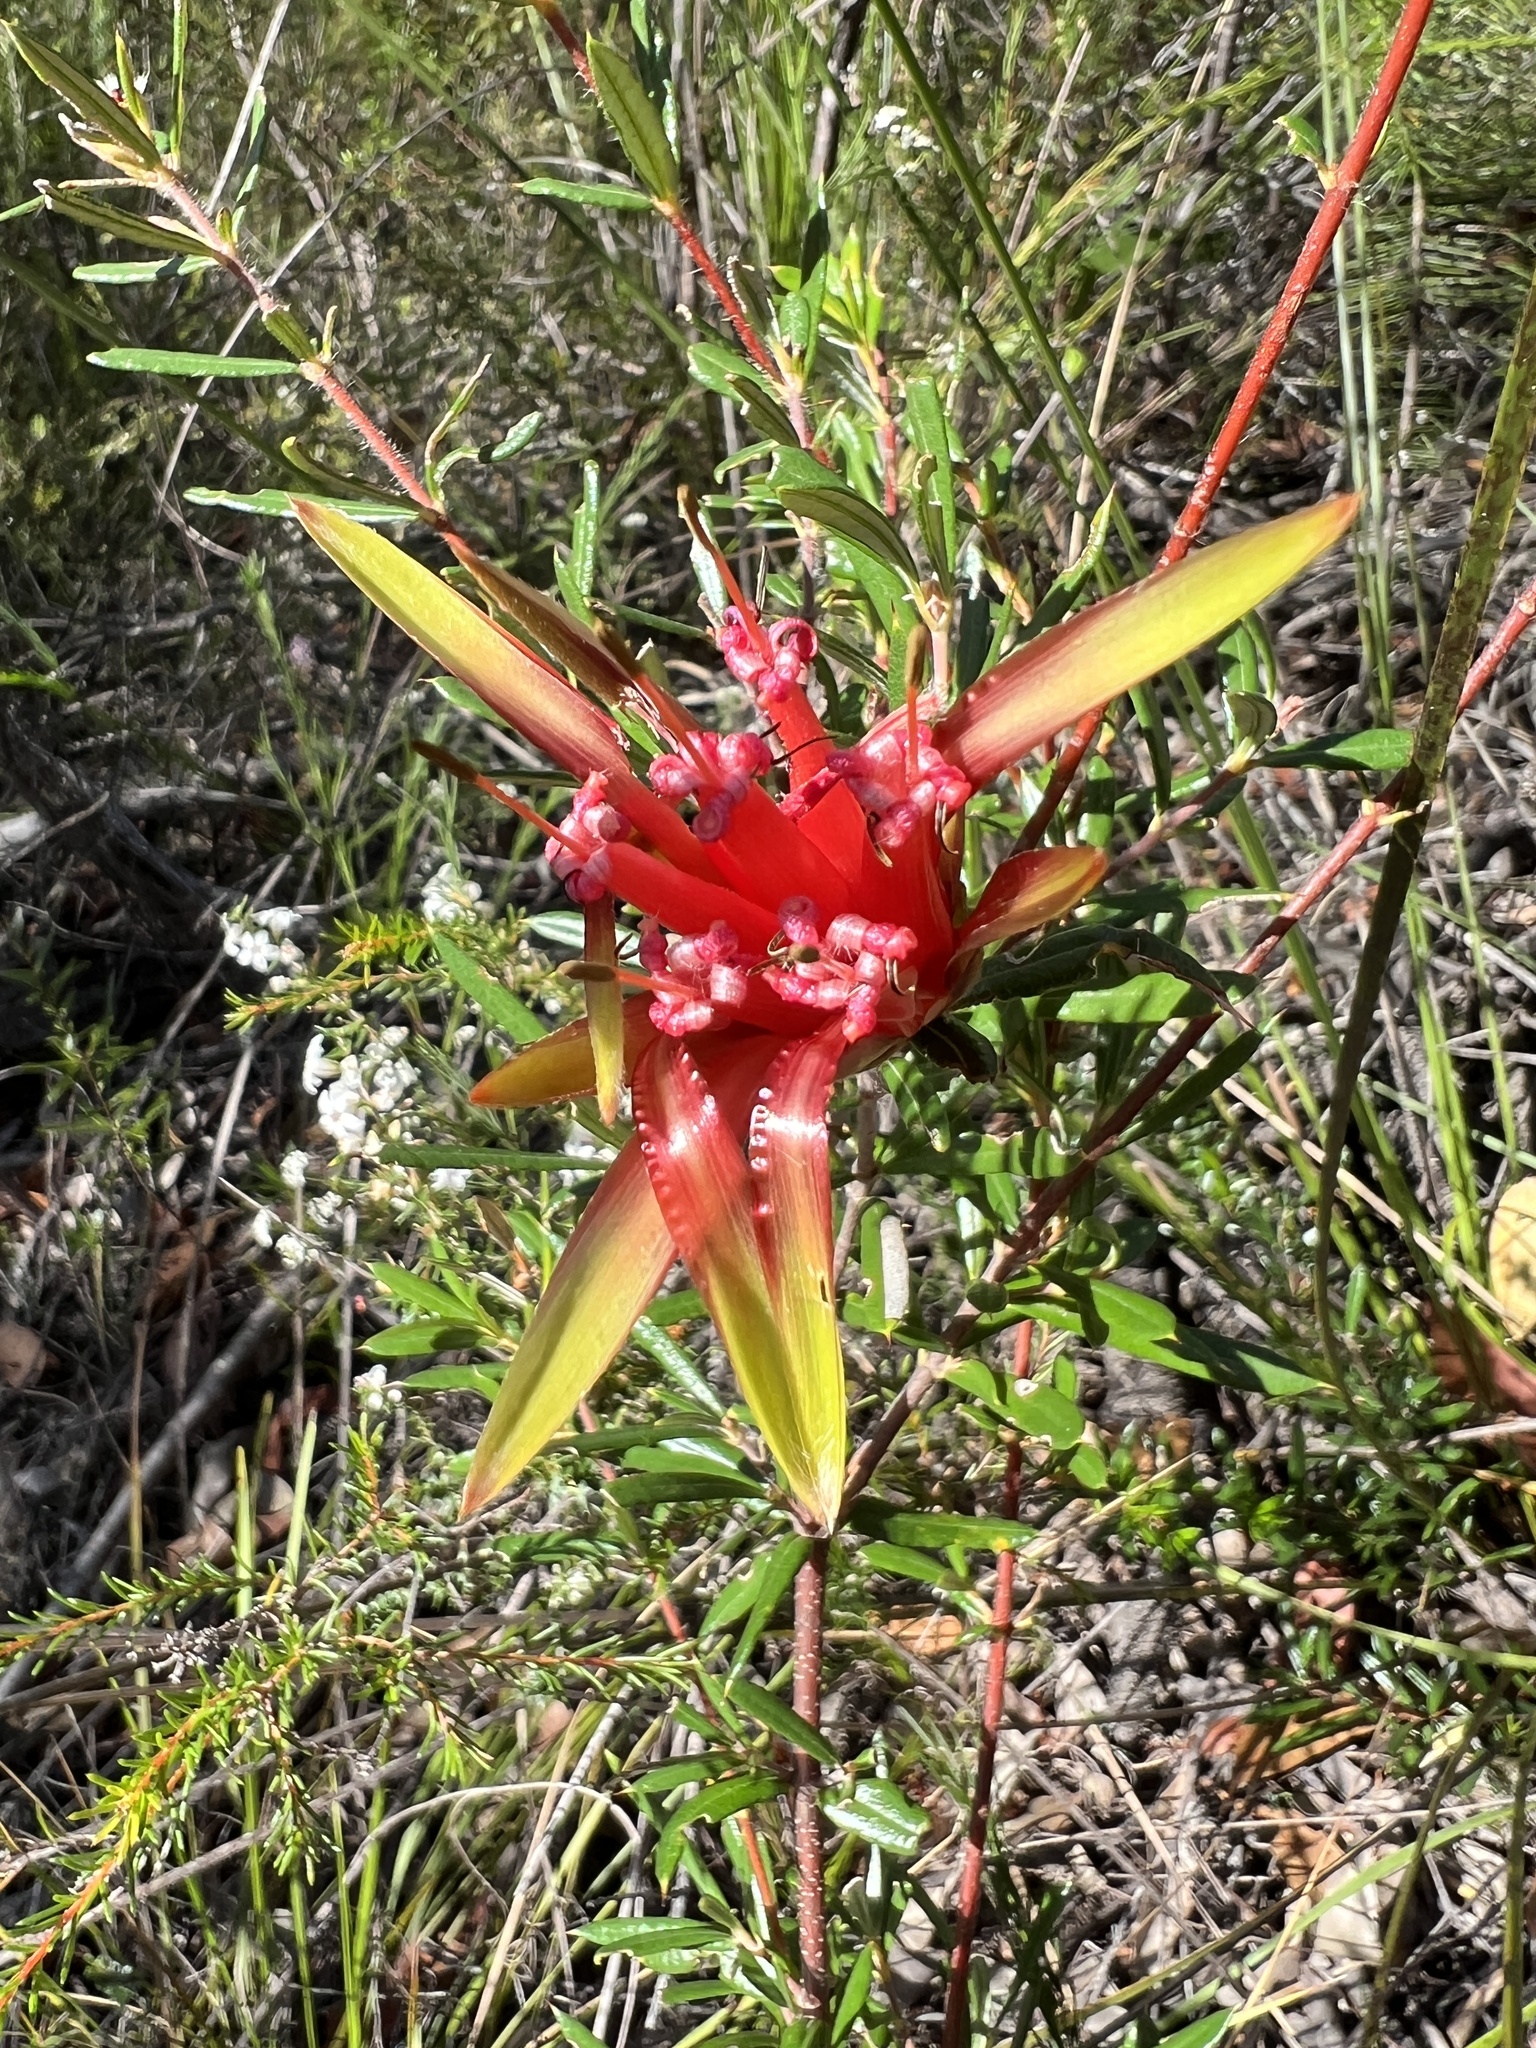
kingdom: Plantae
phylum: Tracheophyta
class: Magnoliopsida
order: Proteales
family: Proteaceae
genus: Lambertia
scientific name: Lambertia formosa
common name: Mountain-devil
